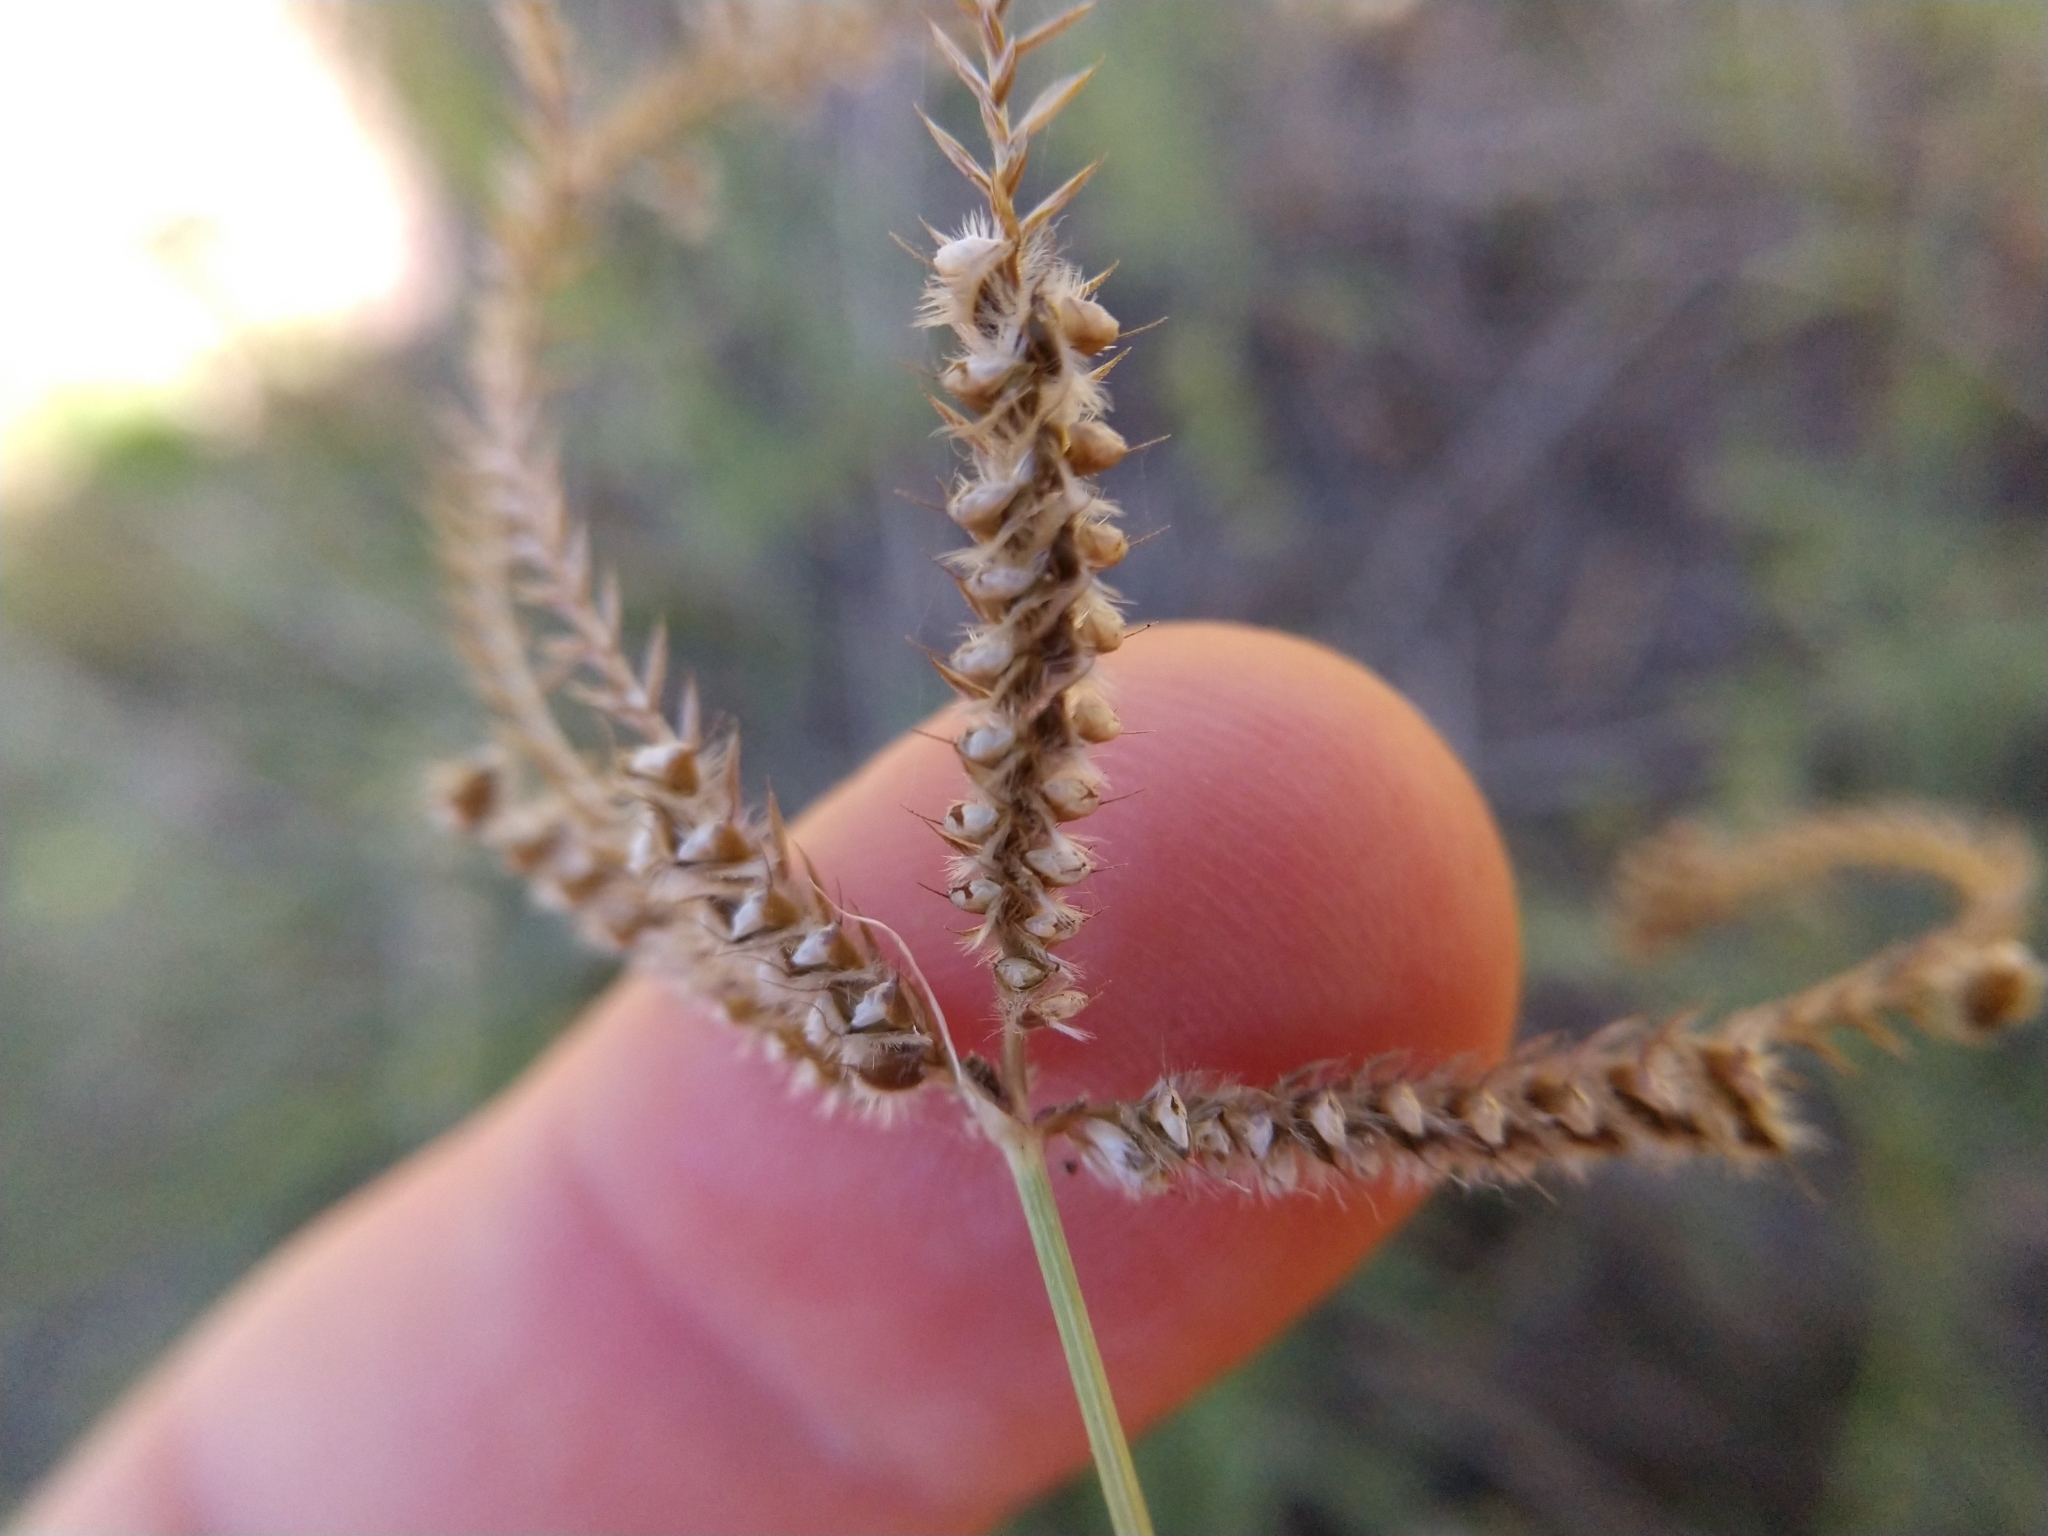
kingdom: Plantae
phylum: Tracheophyta
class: Liliopsida
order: Poales
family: Poaceae
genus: Stapfochloa
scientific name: Stapfochloa ciliata
